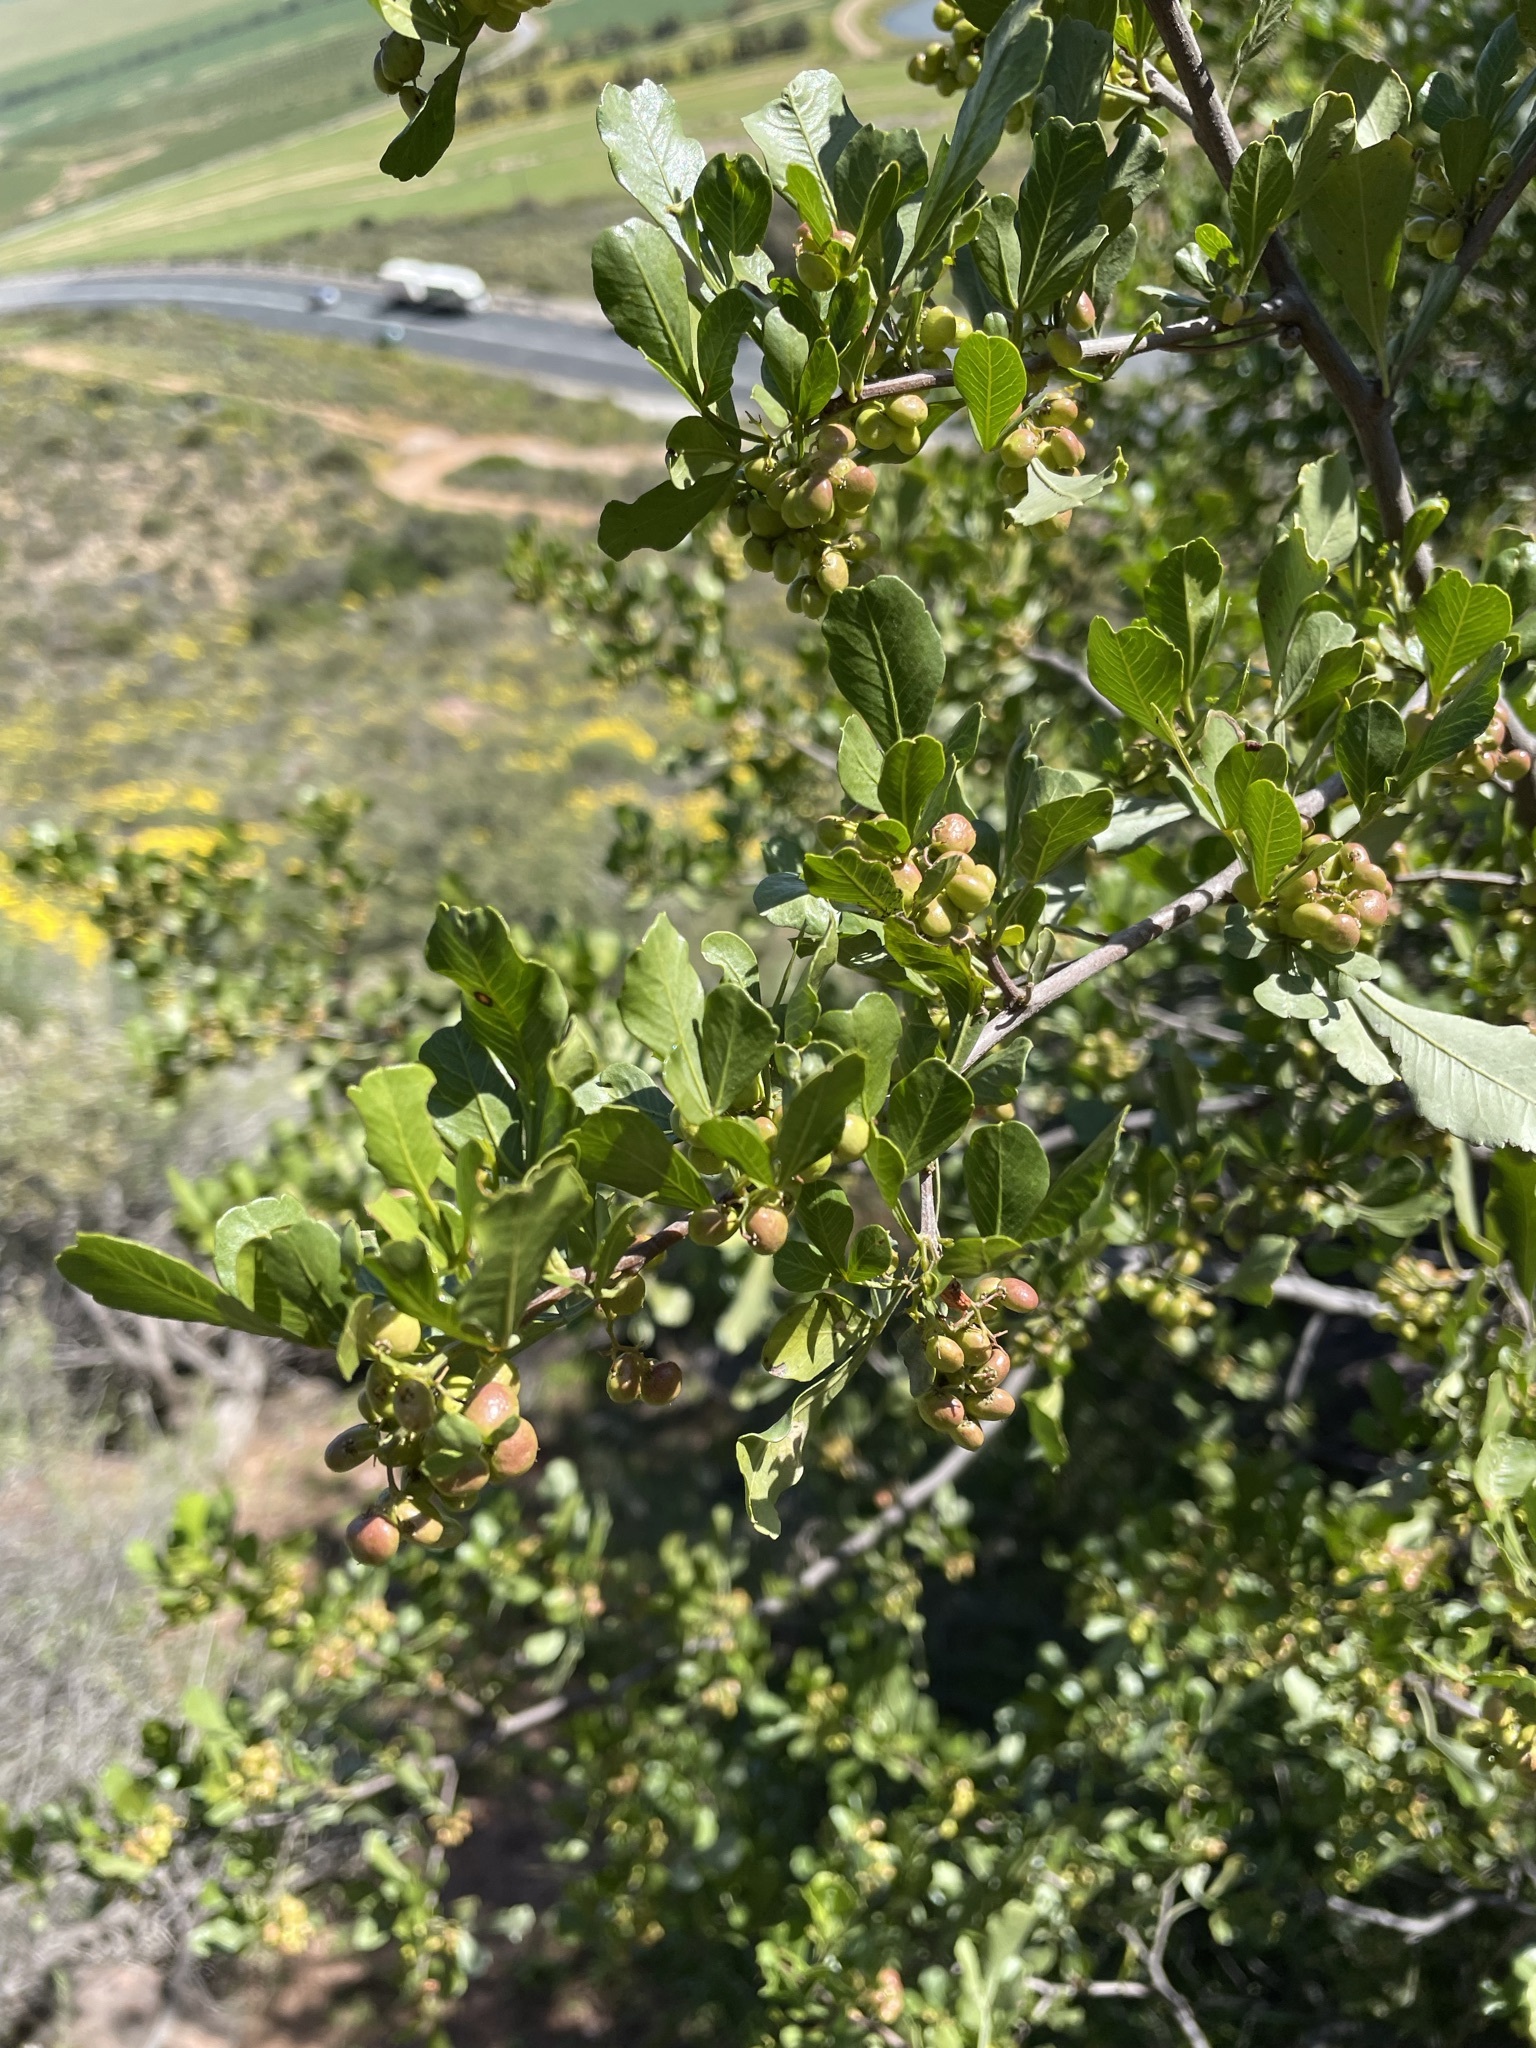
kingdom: Plantae
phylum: Tracheophyta
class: Magnoliopsida
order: Sapindales
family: Anacardiaceae
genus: Searsia
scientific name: Searsia undulata
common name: Namaqua kunibush
